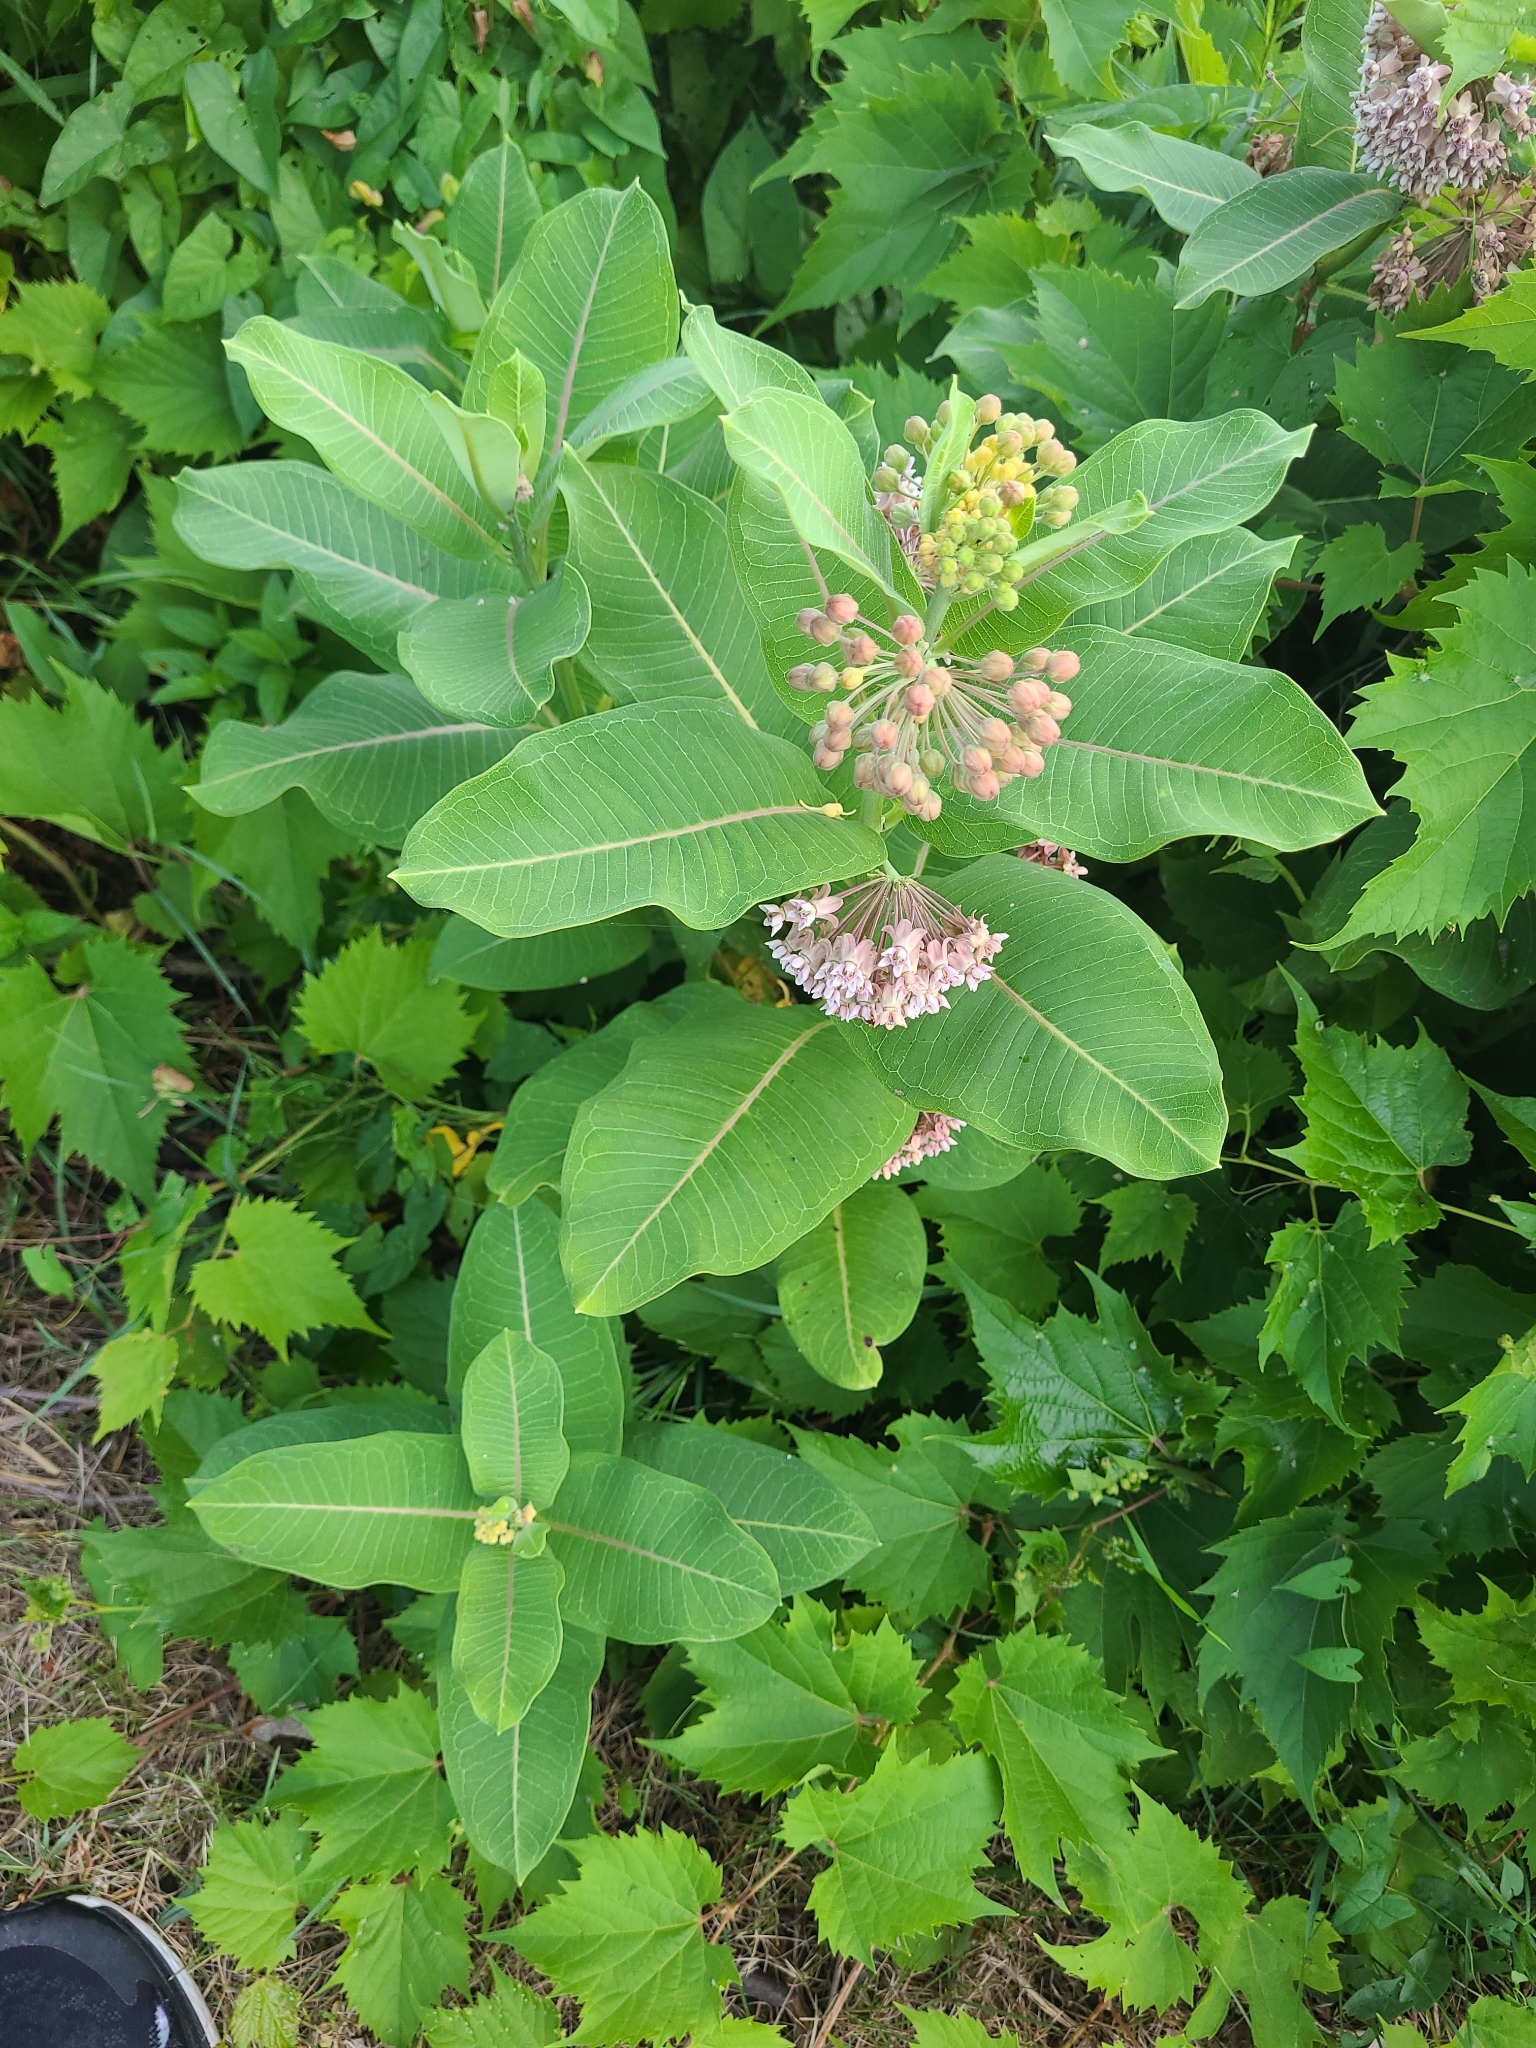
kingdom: Plantae
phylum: Tracheophyta
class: Magnoliopsida
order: Gentianales
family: Apocynaceae
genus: Asclepias
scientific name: Asclepias syriaca
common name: Common milkweed
